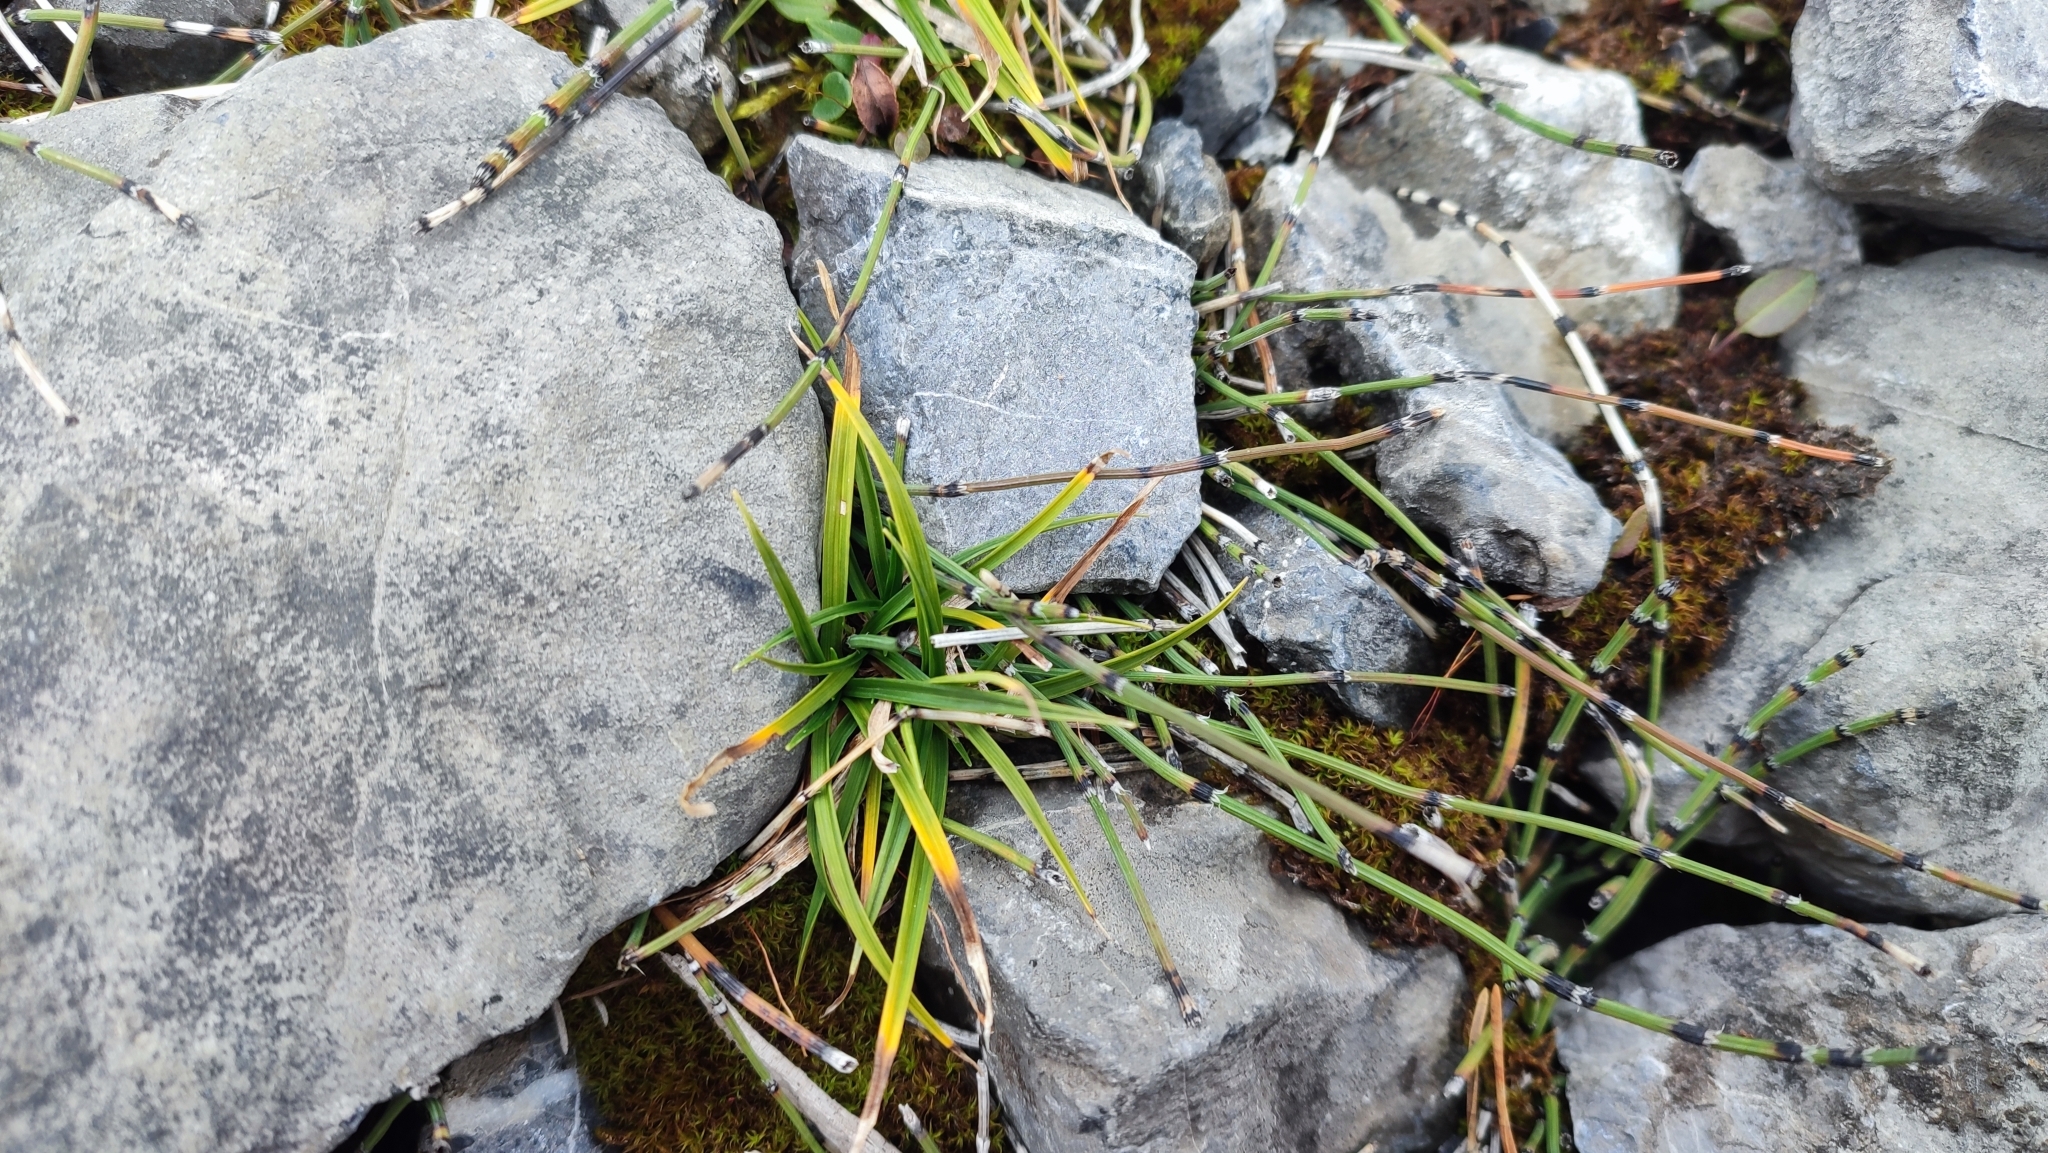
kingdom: Plantae
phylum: Tracheophyta
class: Polypodiopsida
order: Equisetales
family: Equisetaceae
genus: Equisetum
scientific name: Equisetum variegatum
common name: Variegated horsetail
